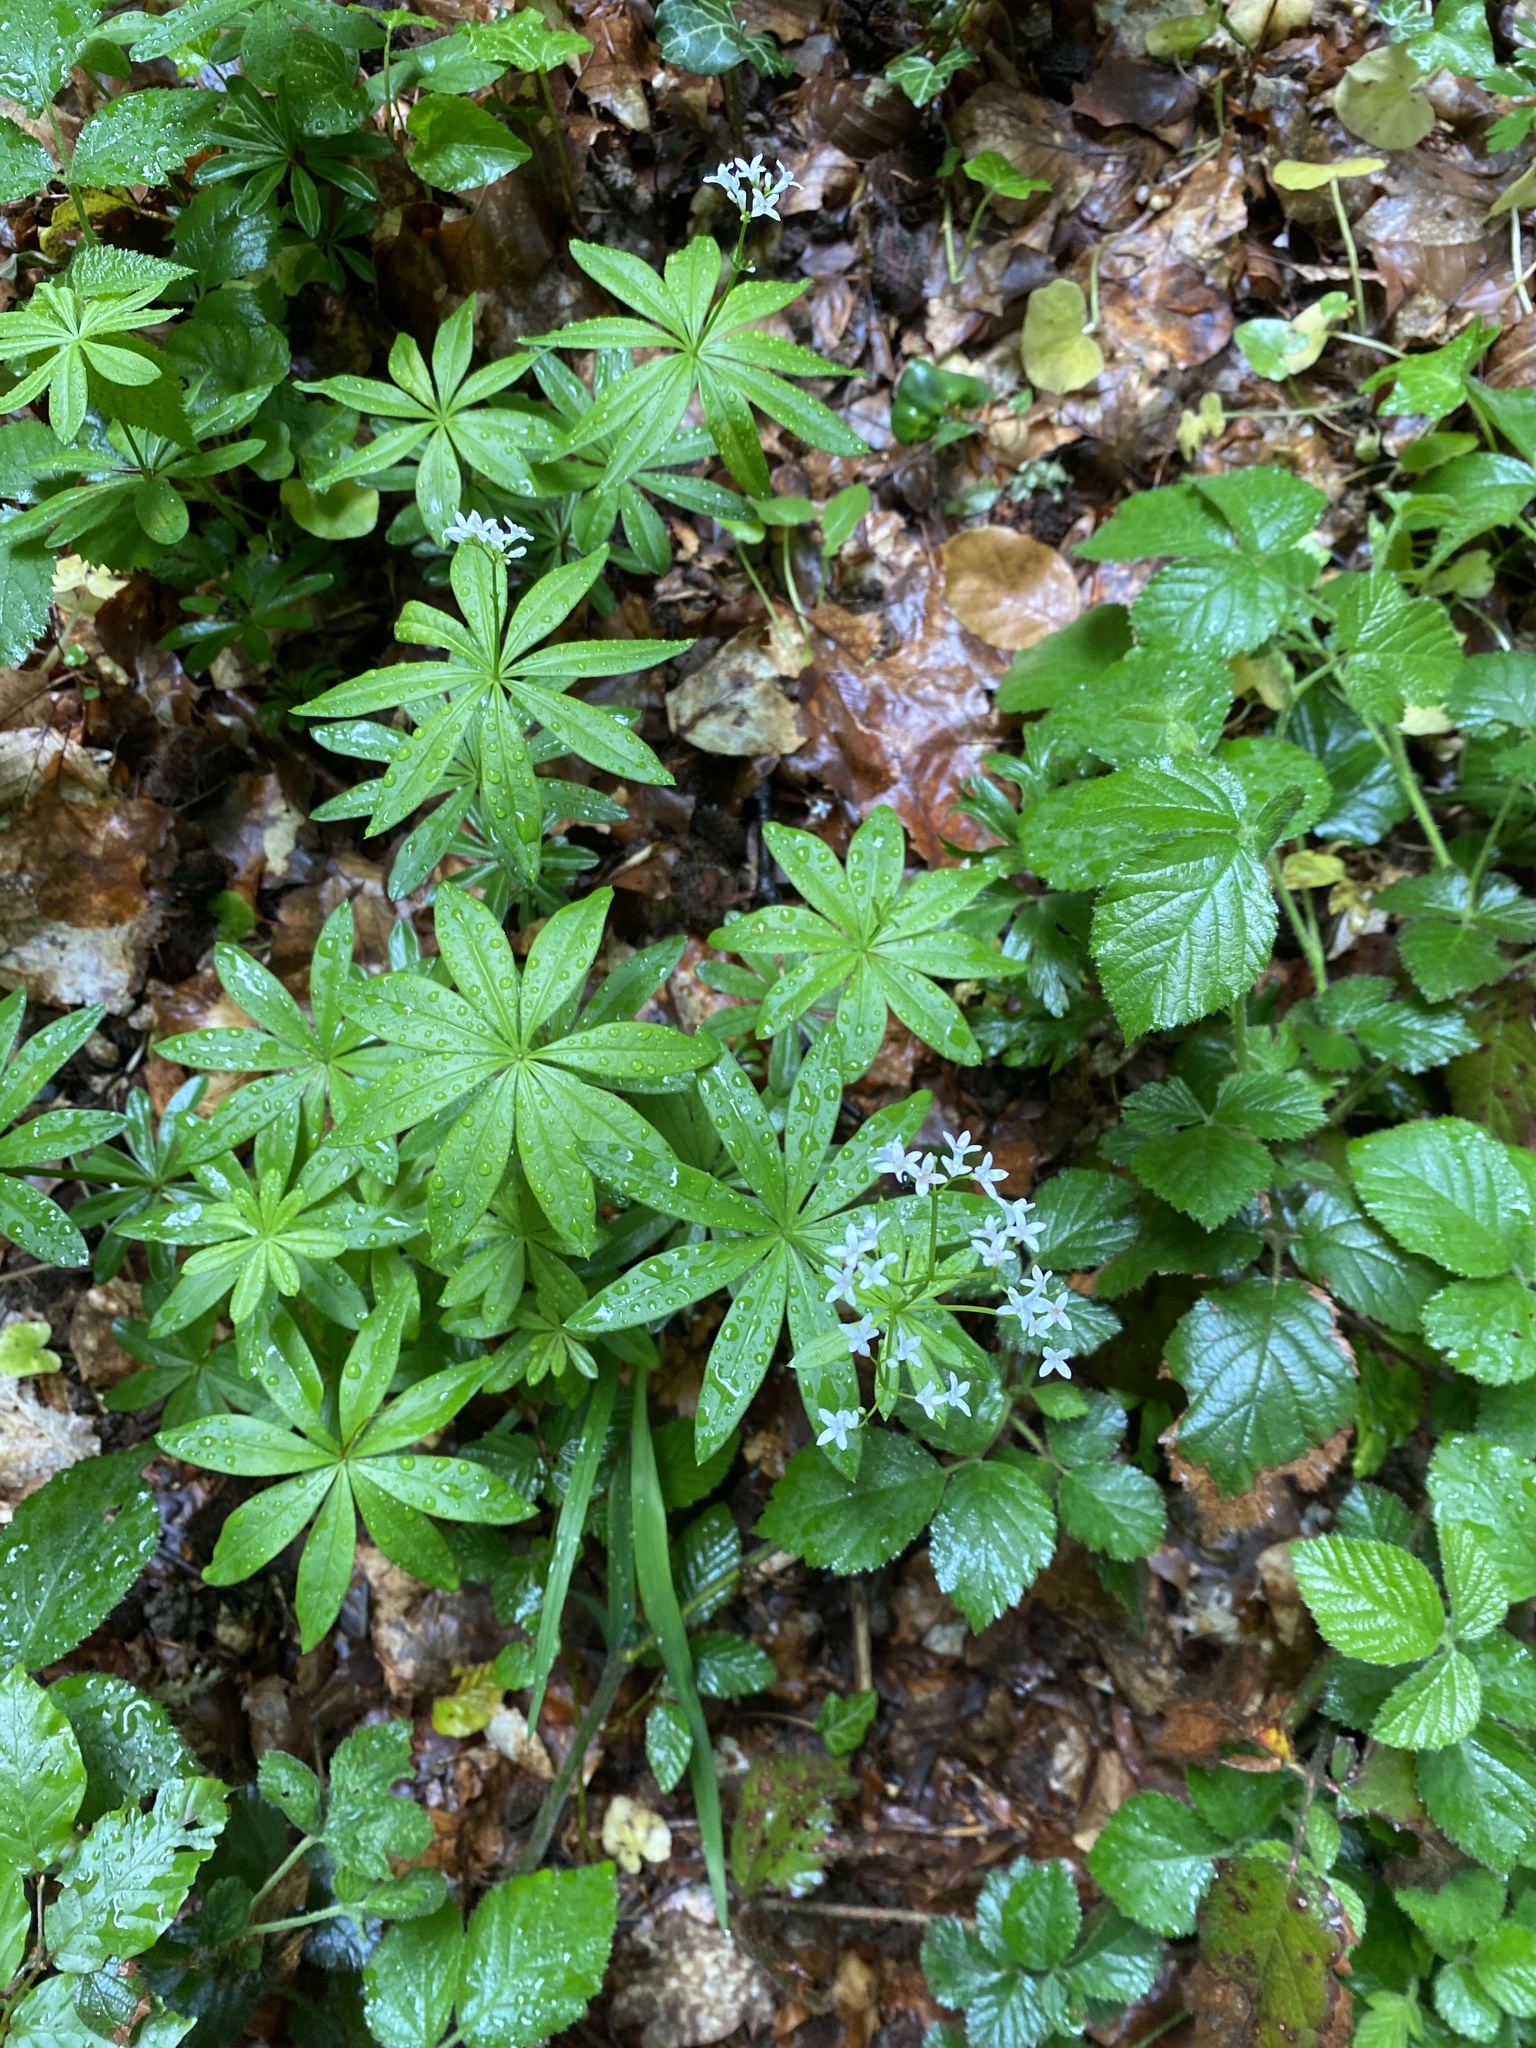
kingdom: Plantae
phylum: Tracheophyta
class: Magnoliopsida
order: Gentianales
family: Rubiaceae
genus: Galium
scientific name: Galium odoratum
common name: Sweet woodruff
